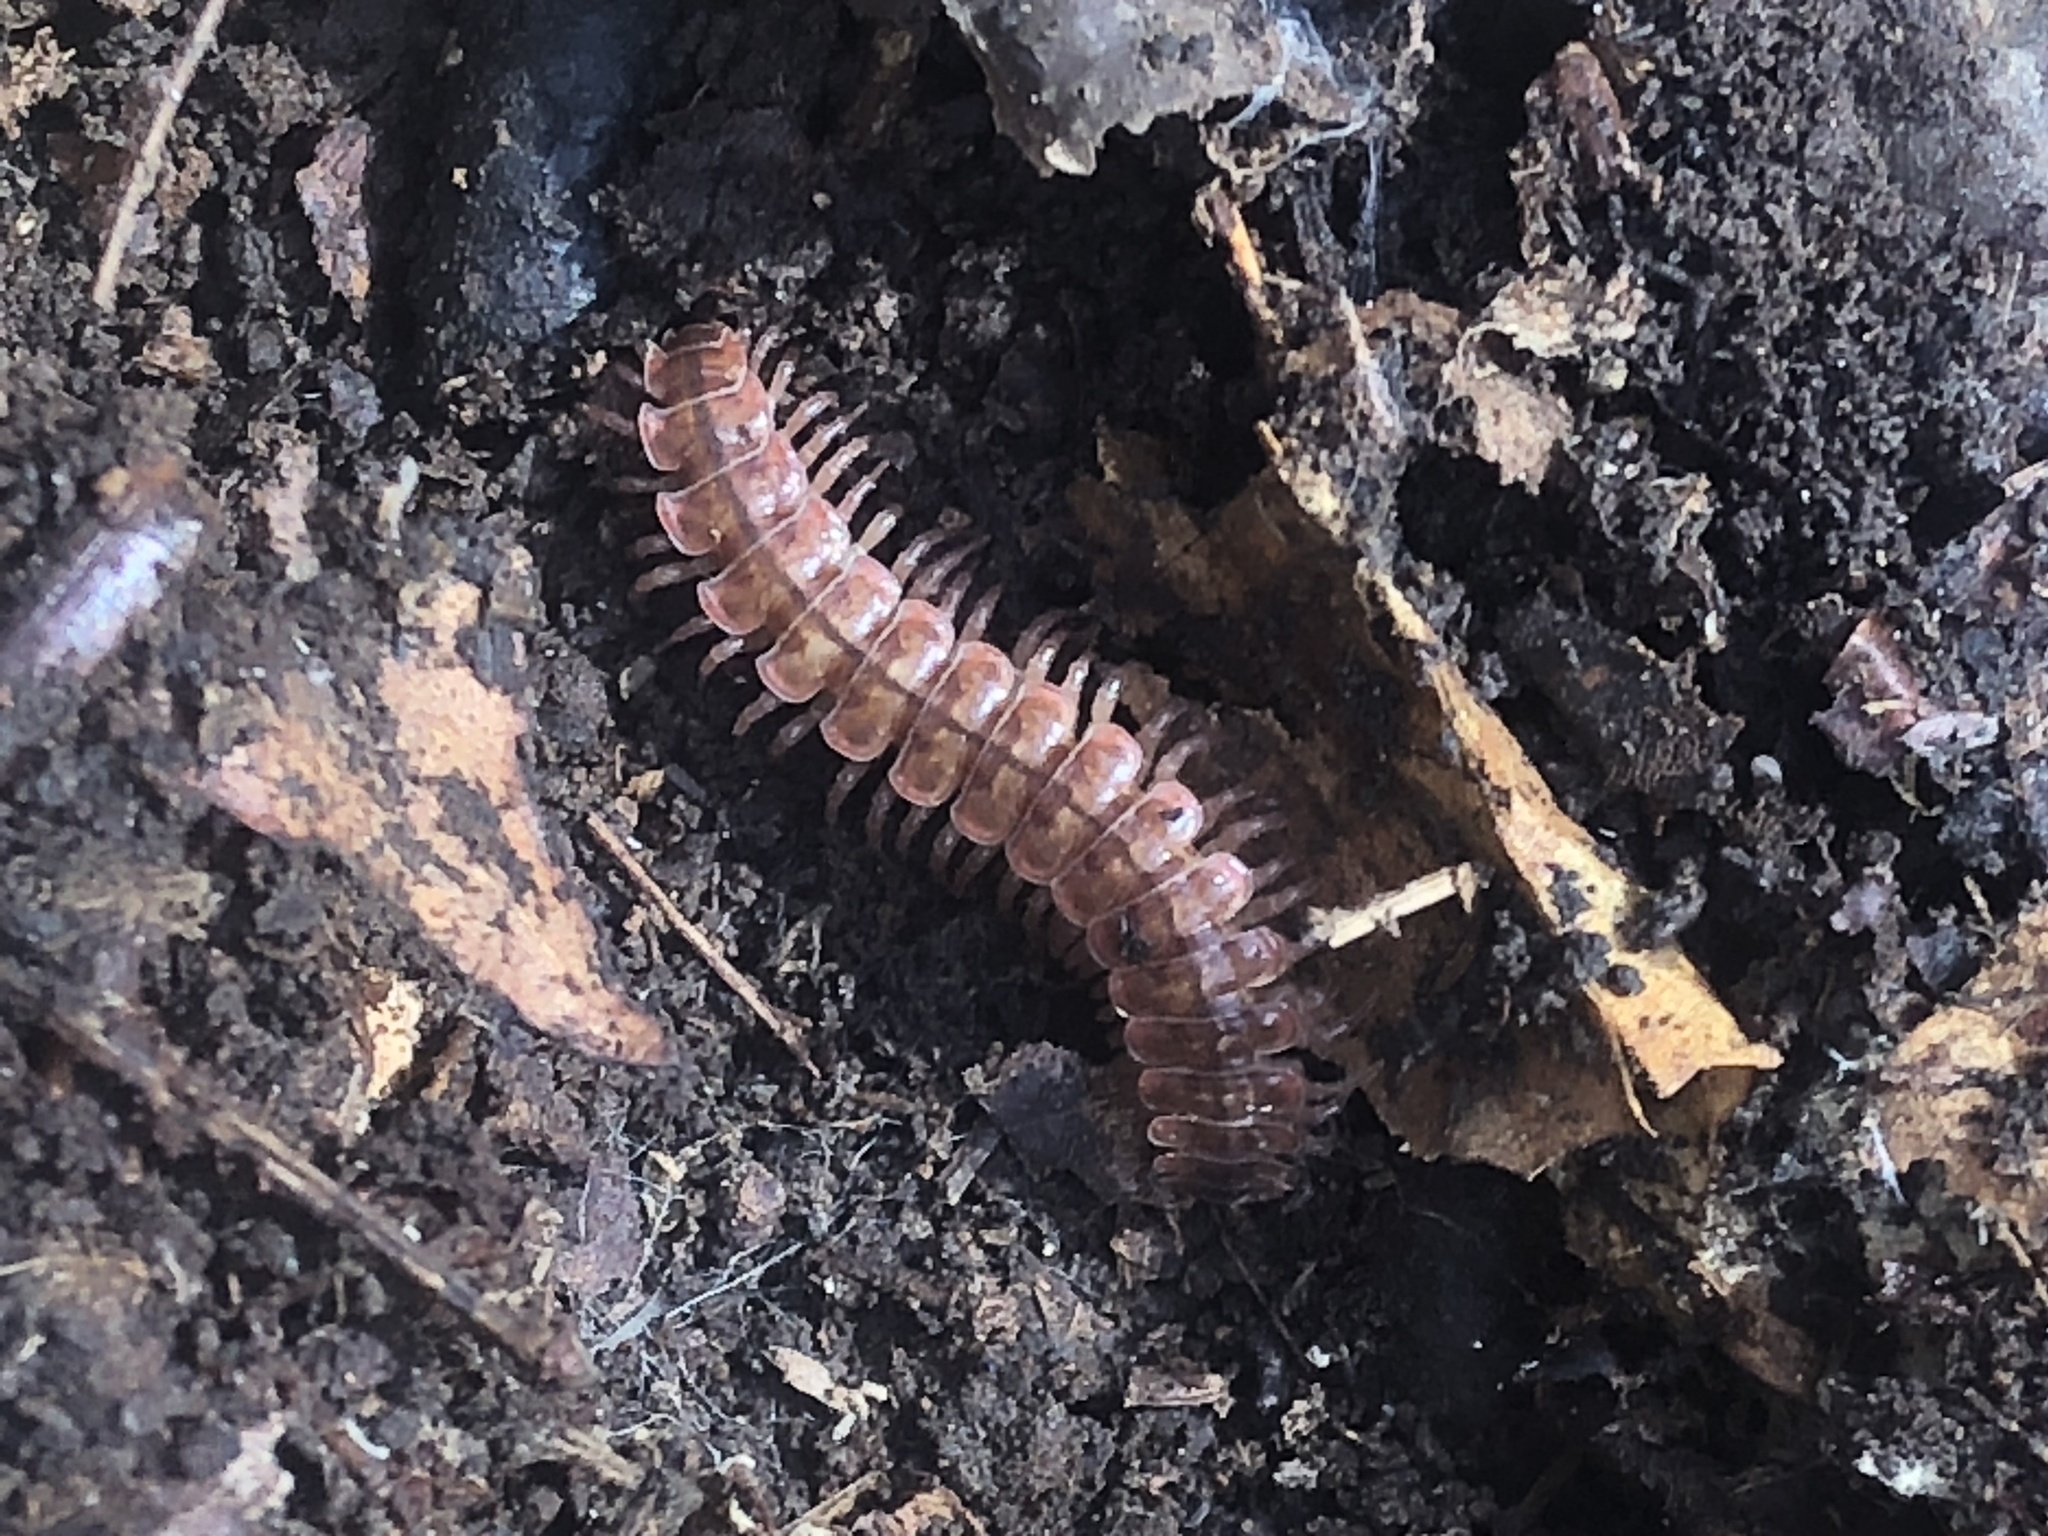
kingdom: Animalia
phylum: Arthropoda
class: Diplopoda
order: Polydesmida
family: Polydesmidae
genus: Pseudopolydesmus
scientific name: Pseudopolydesmus serratus
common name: Common pink flat-back millipede
